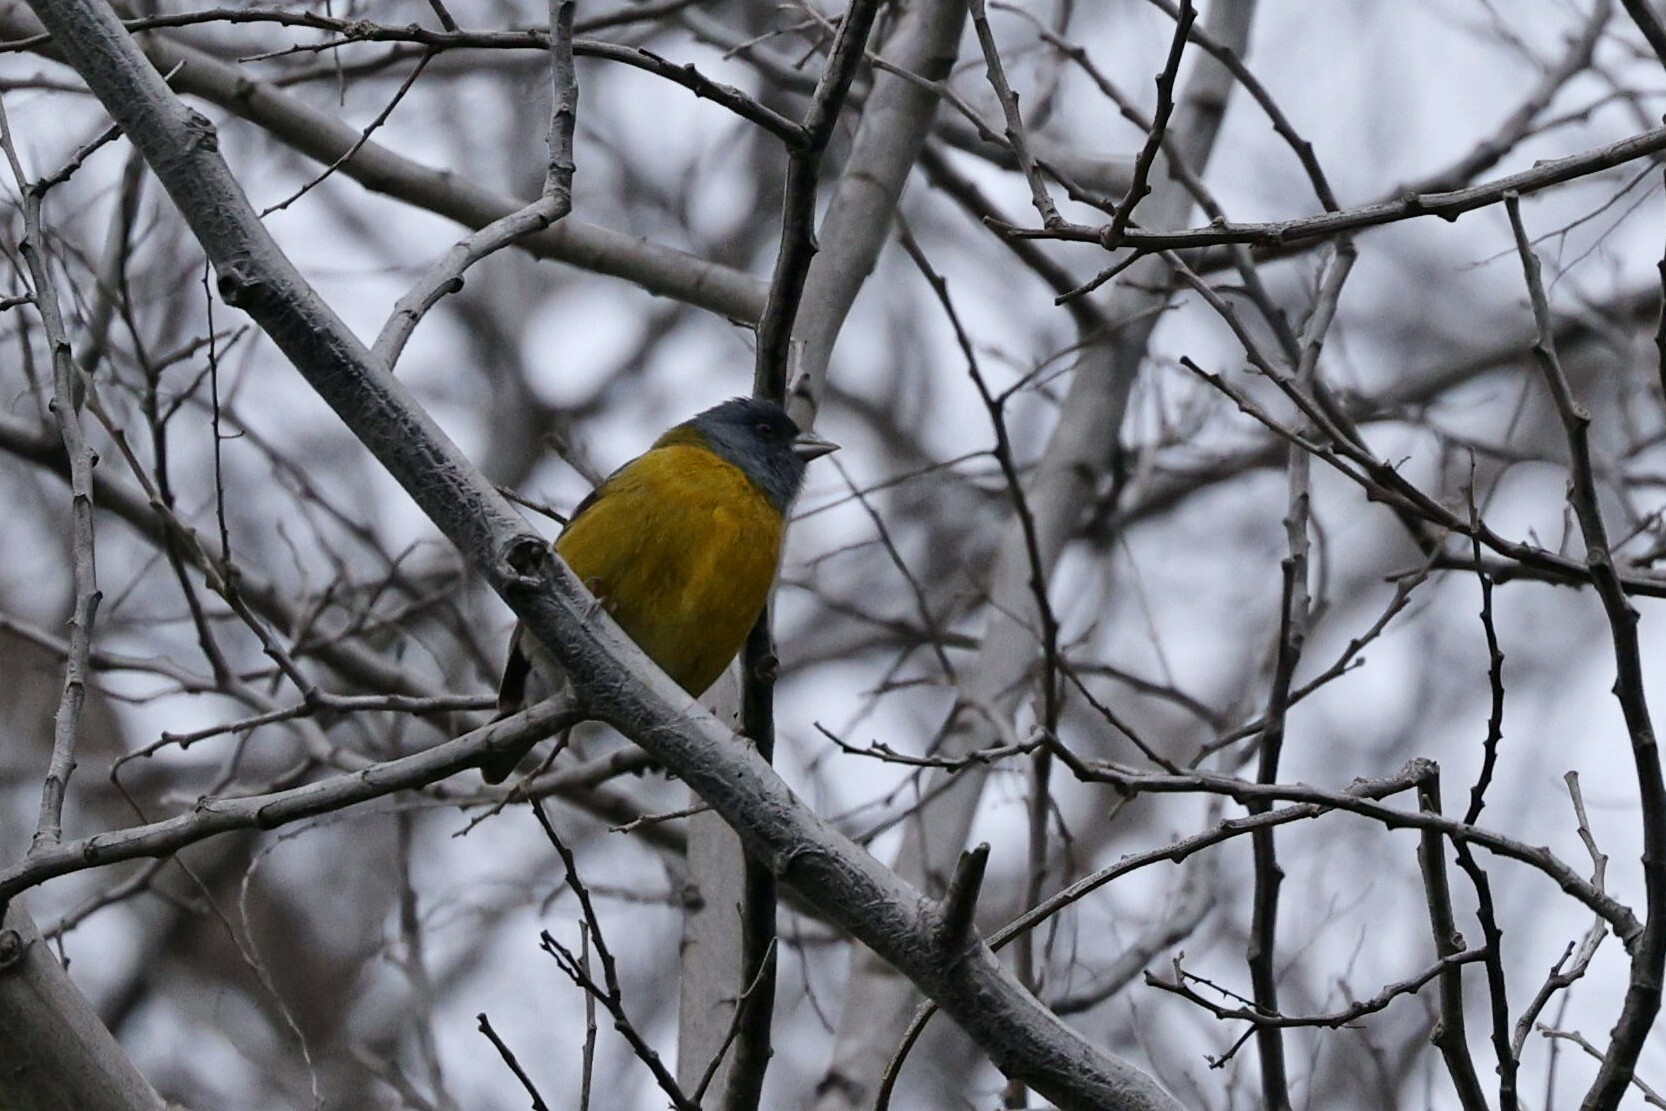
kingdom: Animalia
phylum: Chordata
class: Aves
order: Passeriformes
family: Thraupidae
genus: Phrygilus
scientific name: Phrygilus gayi
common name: Grey-hooded sierra finch
